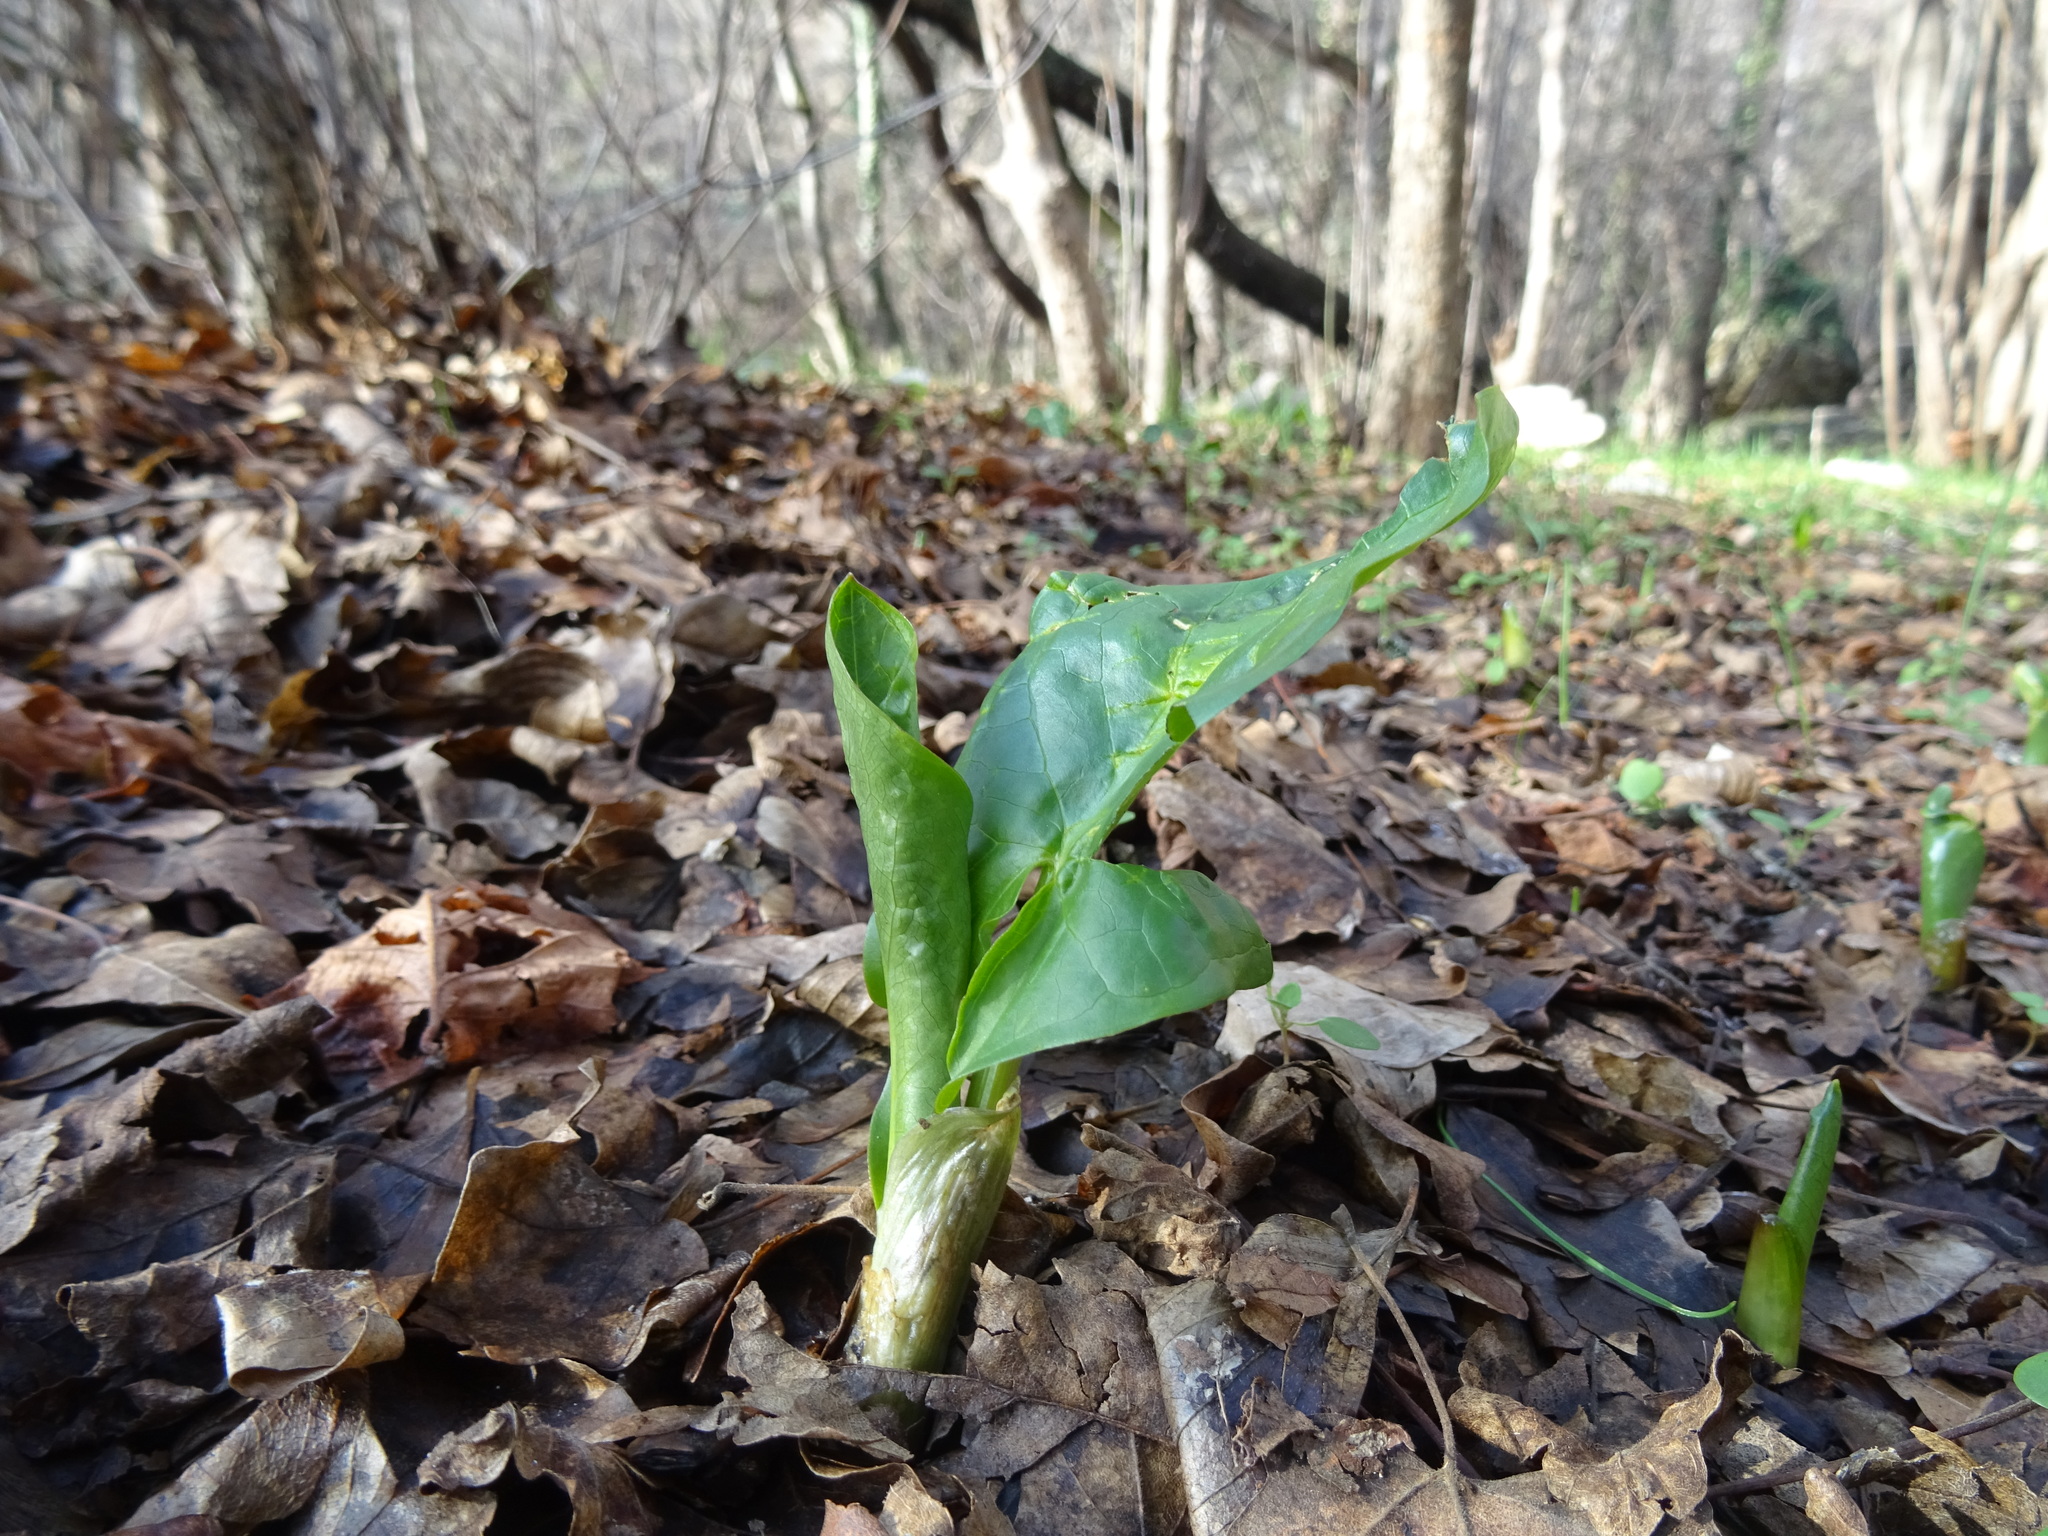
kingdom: Plantae
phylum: Tracheophyta
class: Liliopsida
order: Alismatales
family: Araceae
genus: Arum
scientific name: Arum orientale
